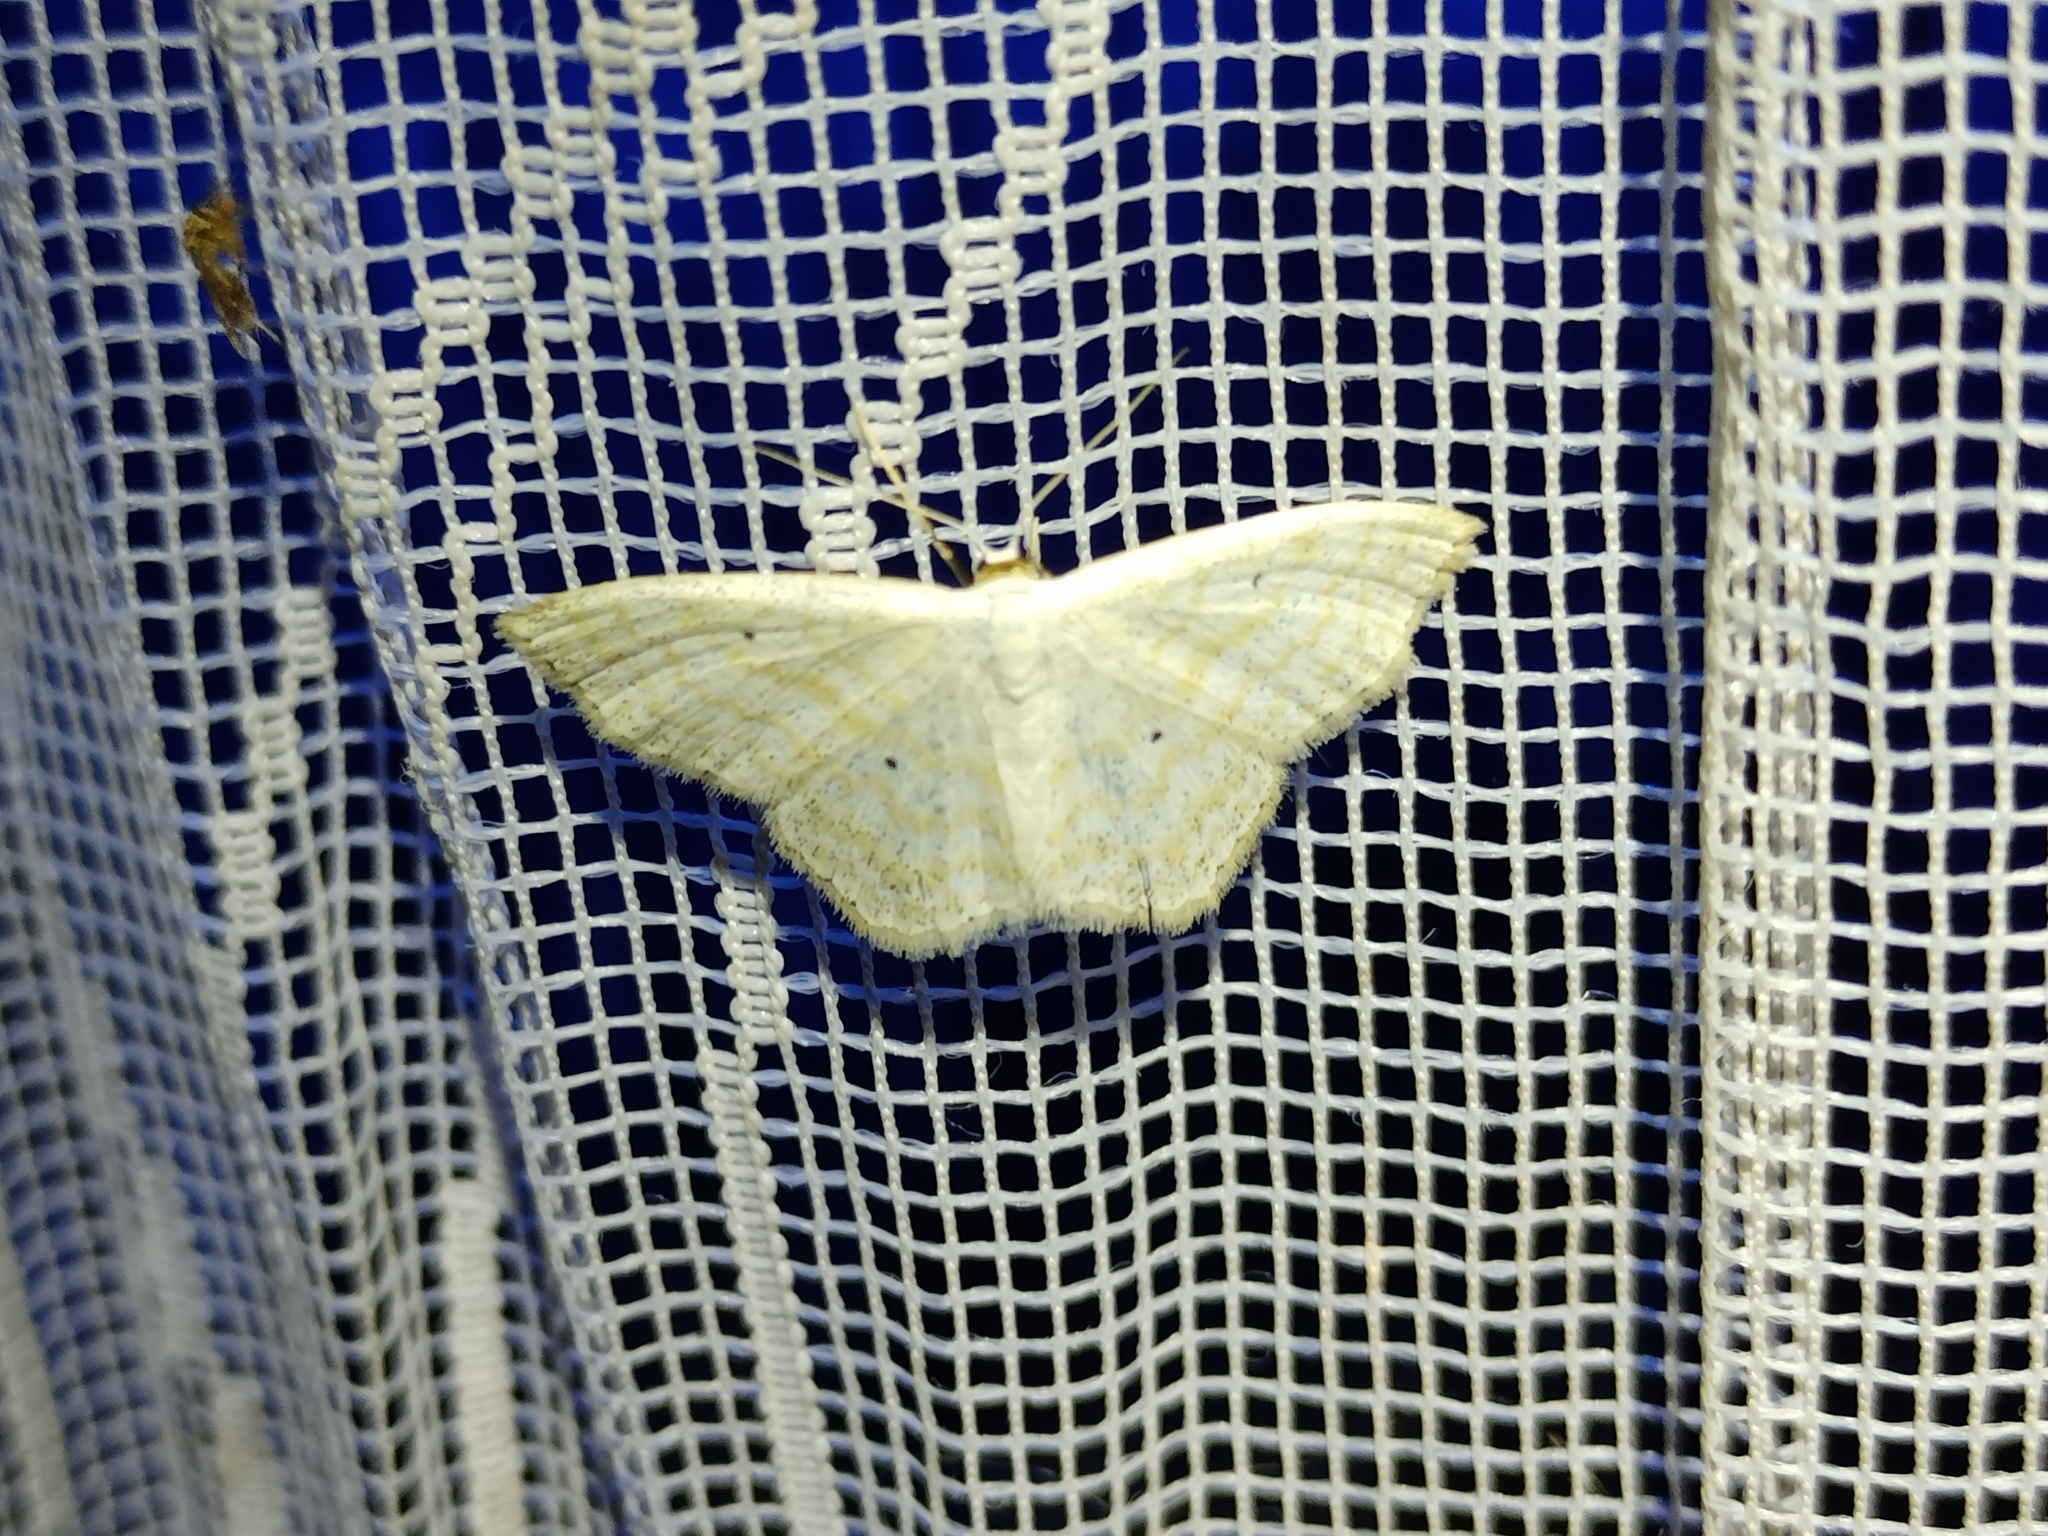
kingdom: Animalia
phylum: Arthropoda
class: Insecta
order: Lepidoptera
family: Geometridae
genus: Scopula
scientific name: Scopula immutata
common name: Lesser cream wave
